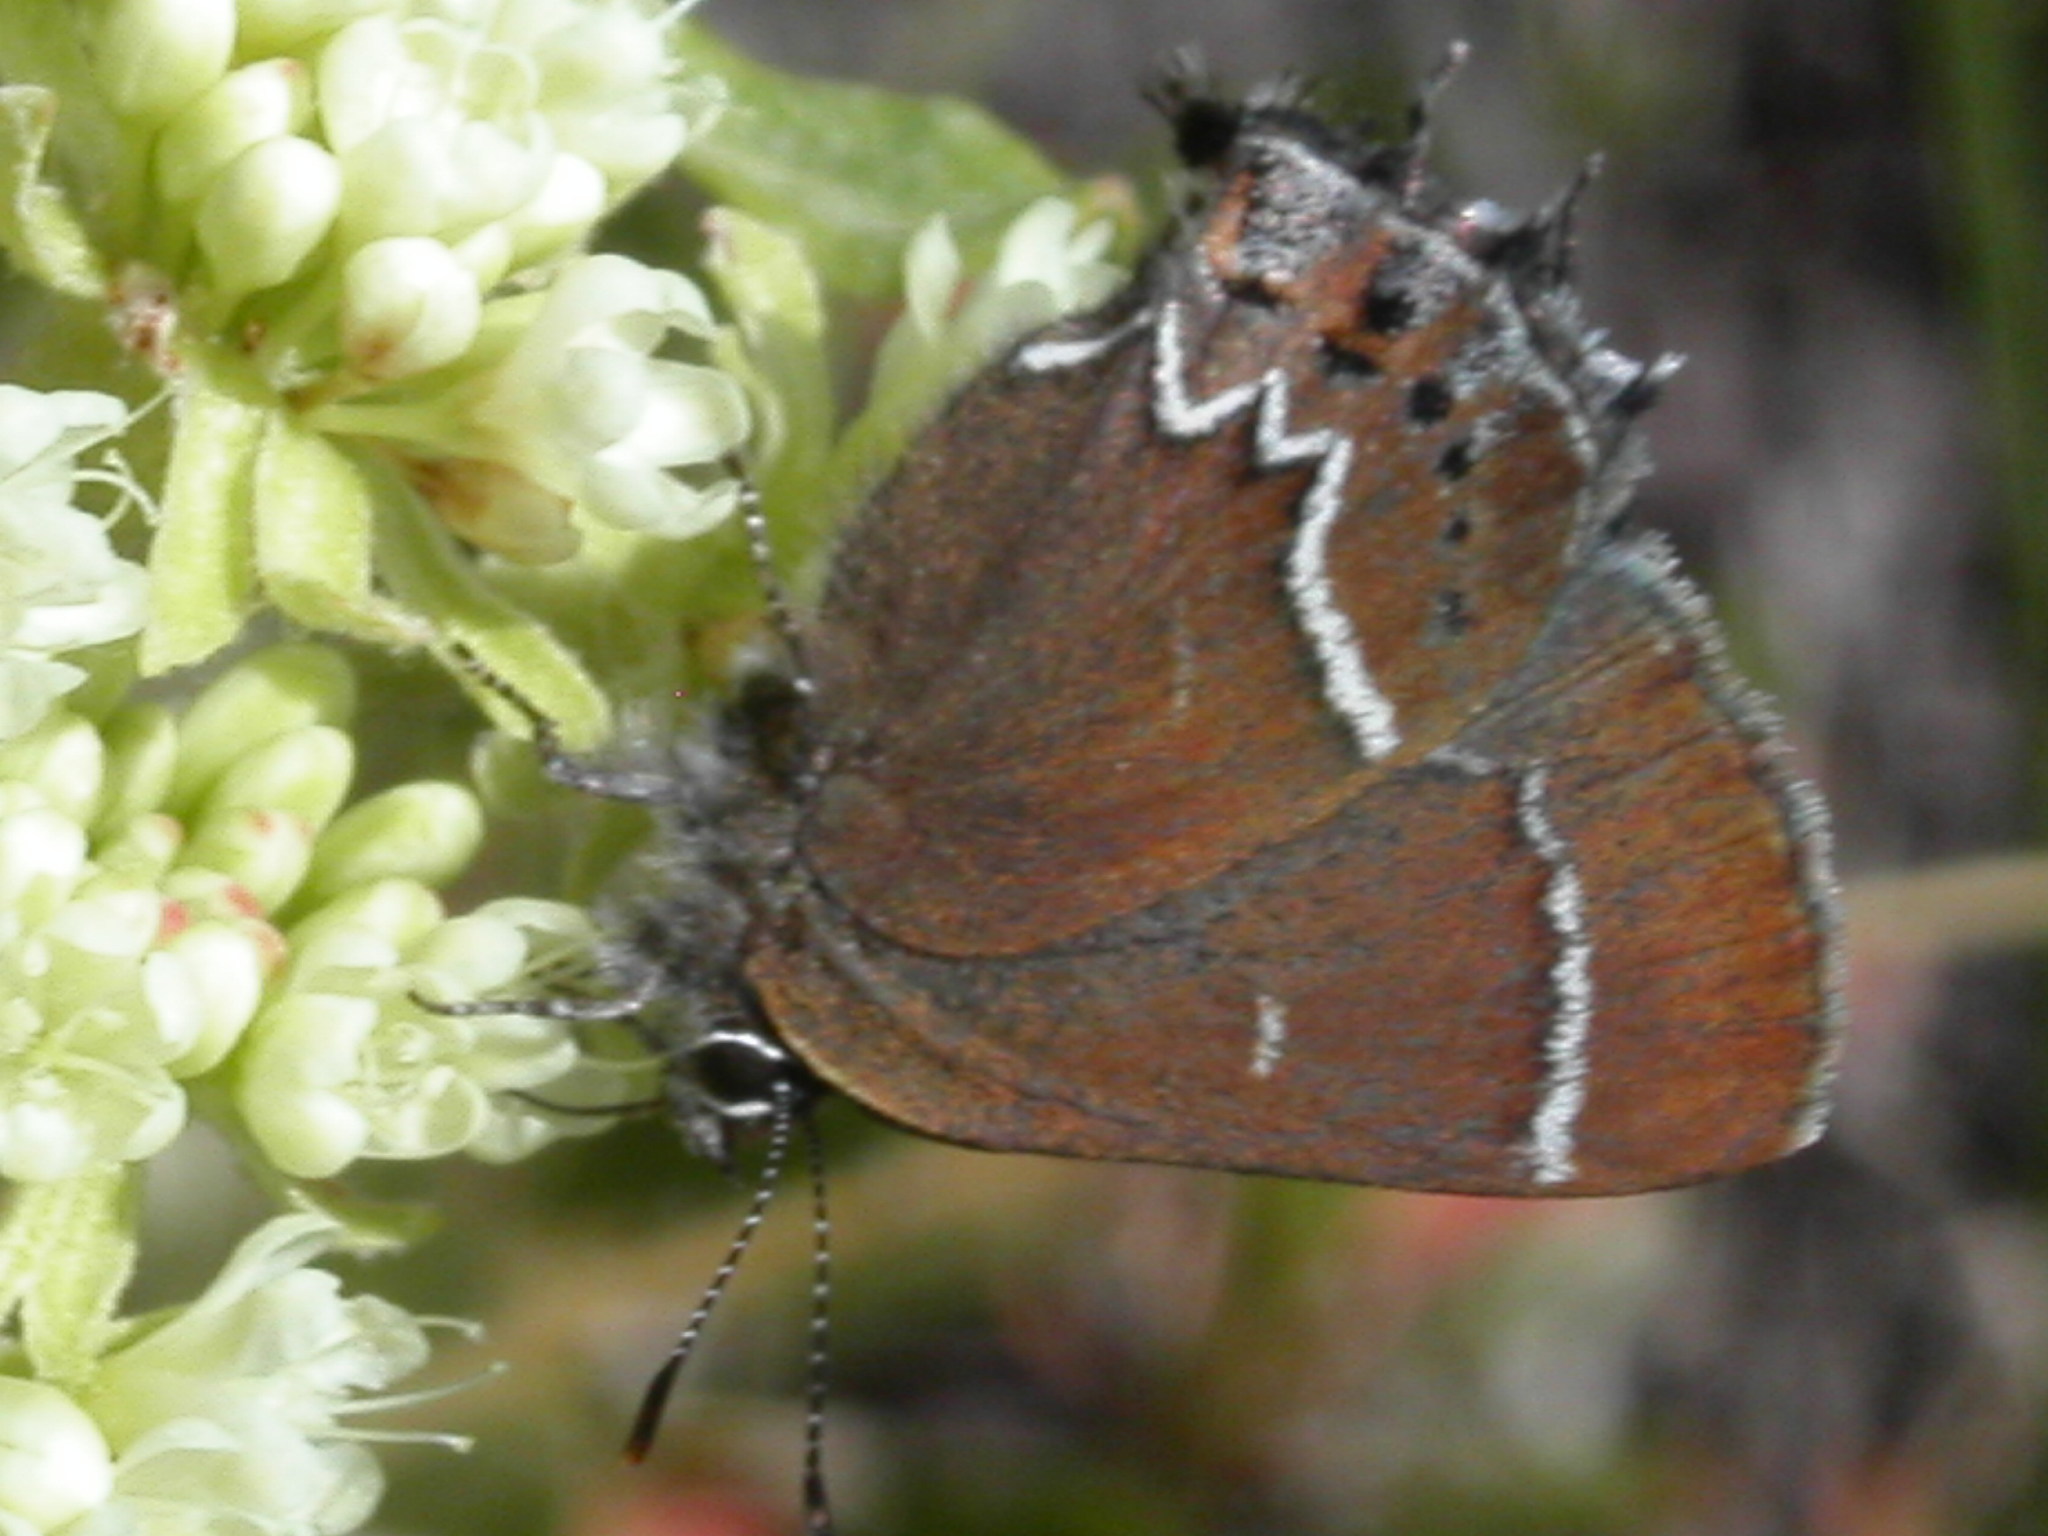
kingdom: Animalia
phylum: Arthropoda
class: Insecta
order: Lepidoptera
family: Lycaenidae
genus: Mitoura
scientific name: Mitoura spinetorum
